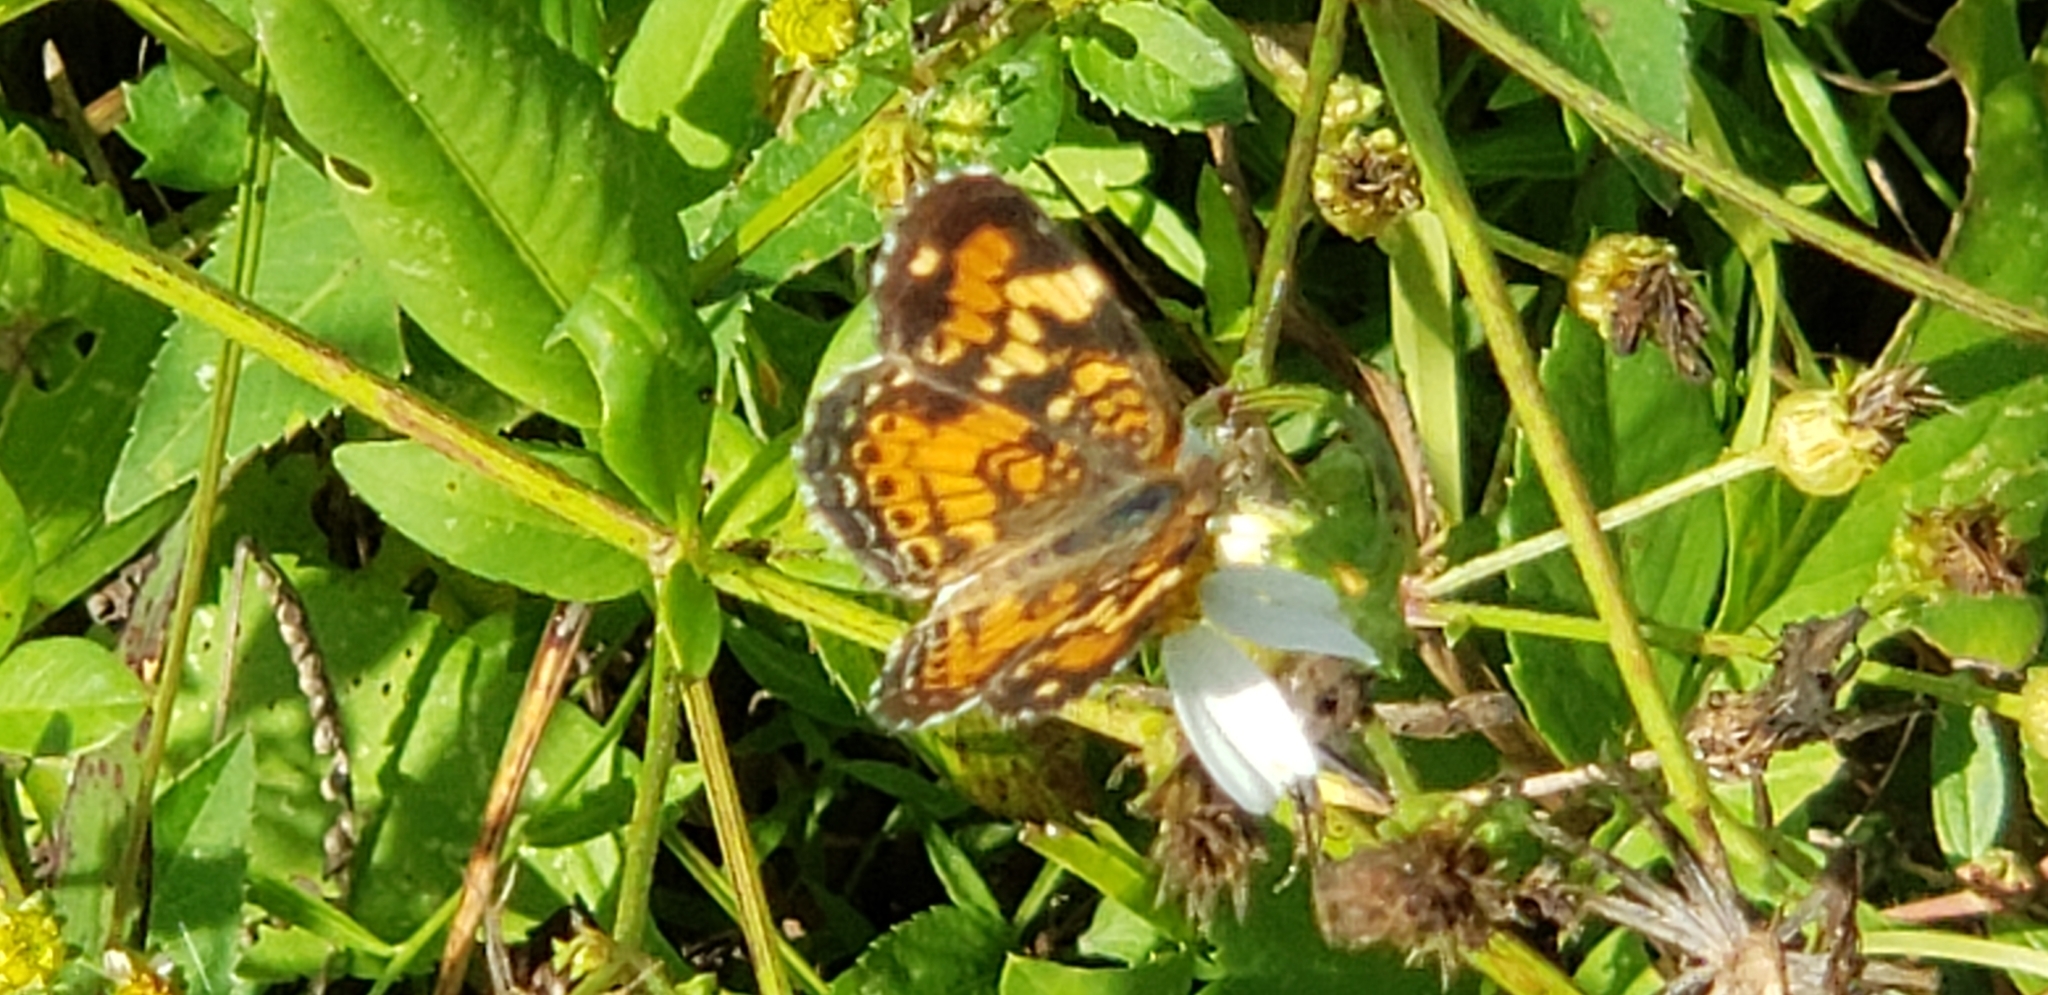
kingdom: Animalia
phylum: Arthropoda
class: Insecta
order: Lepidoptera
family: Nymphalidae
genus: Phyciodes
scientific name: Phyciodes phaon
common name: Phaon crescent
